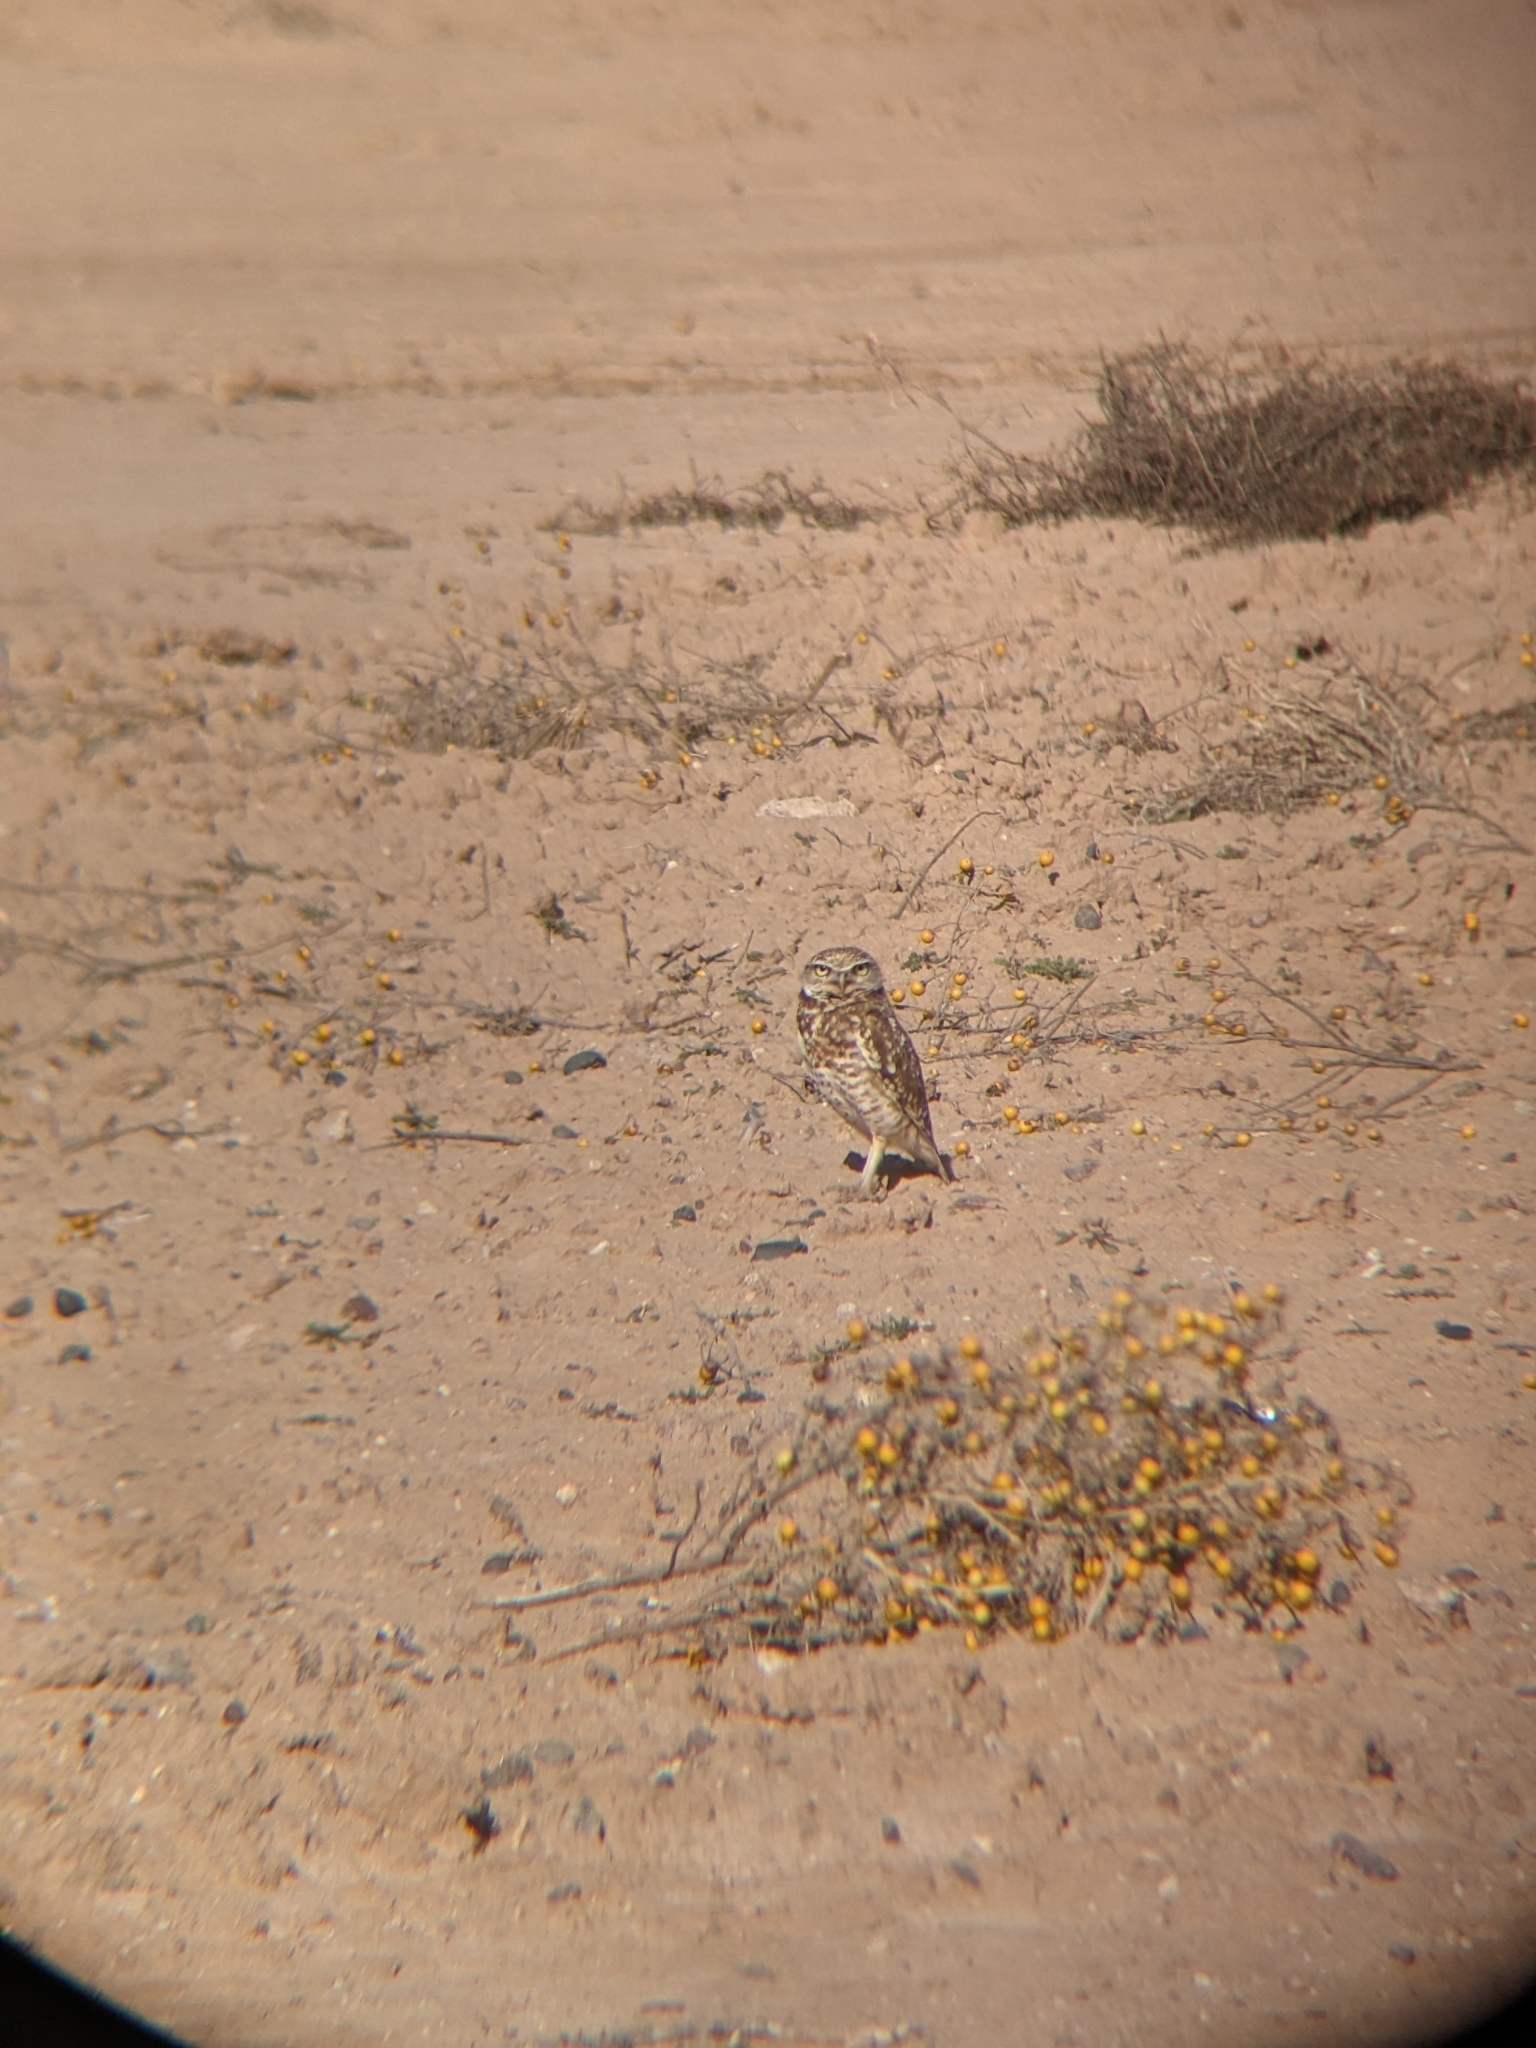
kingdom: Animalia
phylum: Chordata
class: Aves
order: Strigiformes
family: Strigidae
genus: Athene
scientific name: Athene cunicularia
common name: Burrowing owl
